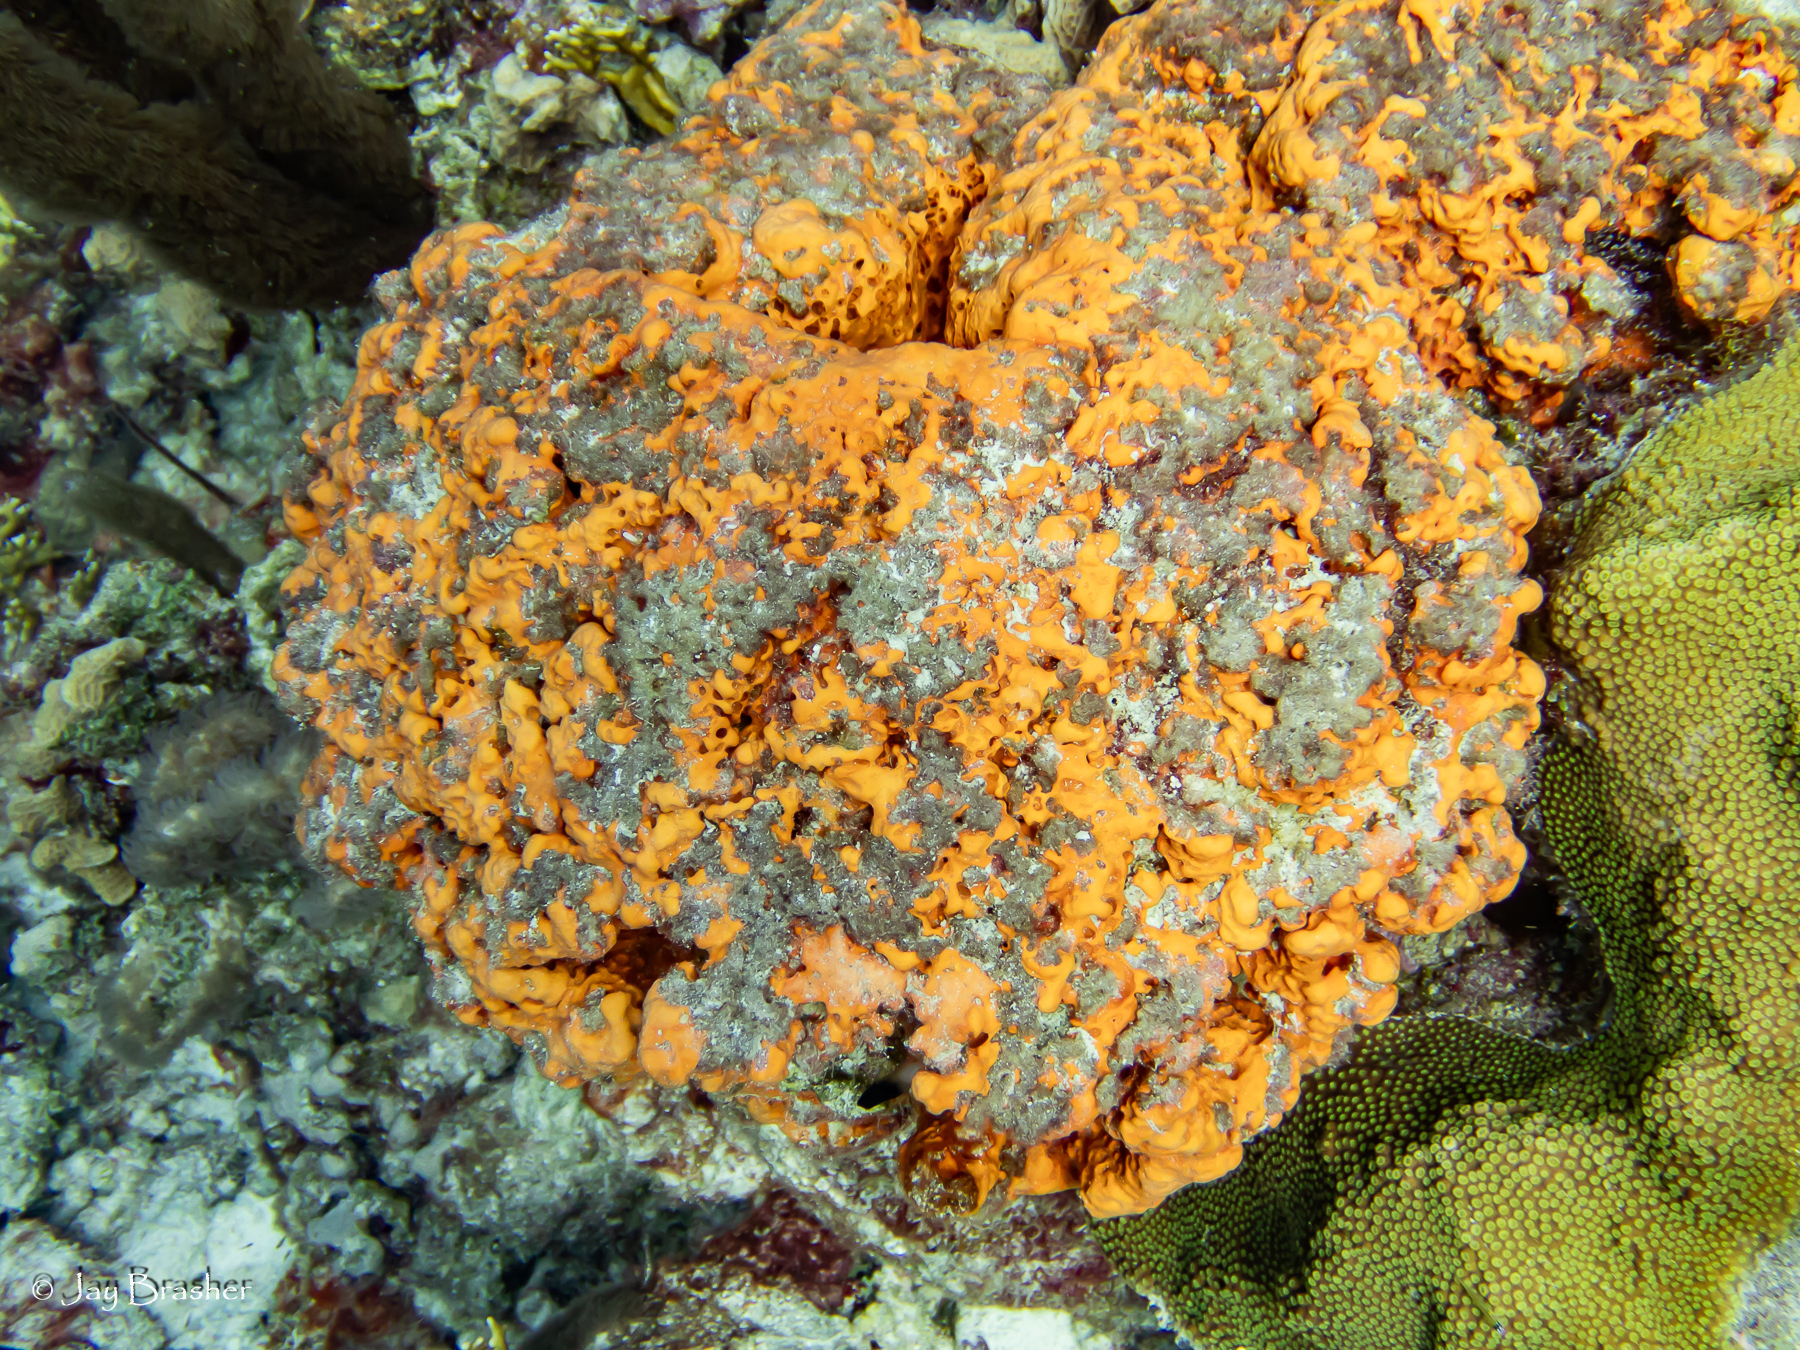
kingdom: Animalia
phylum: Cnidaria
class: Anthozoa
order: Scleractinia
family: Merulinidae
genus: Orbicella
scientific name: Orbicella faveolata
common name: Mountainous star coral
